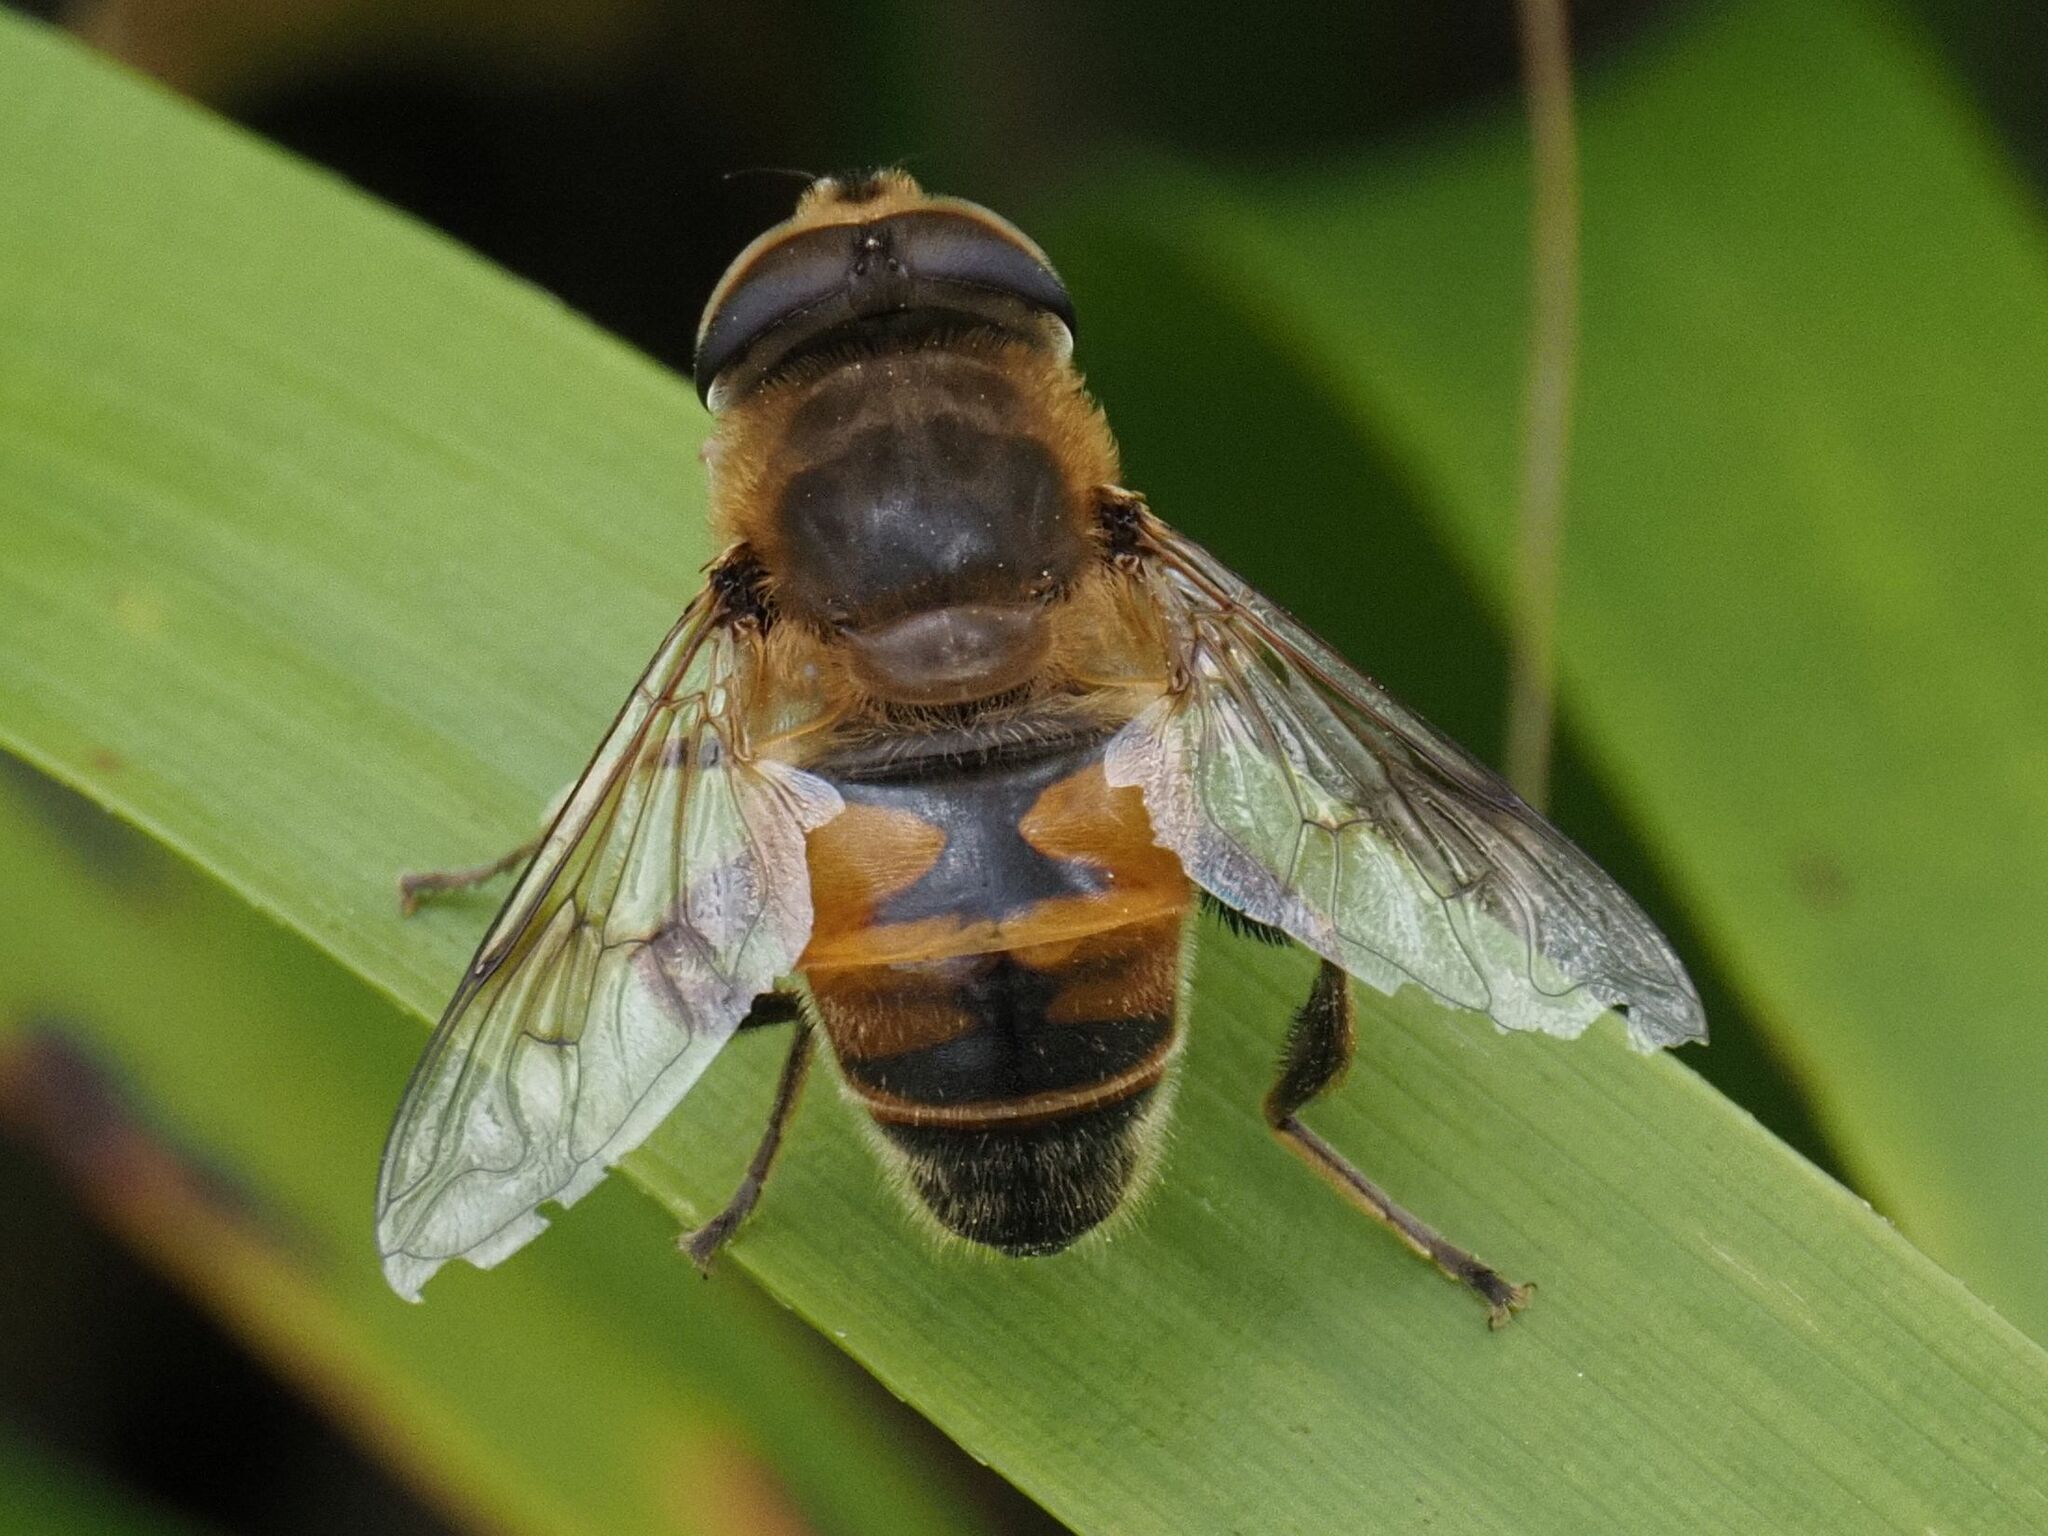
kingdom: Animalia
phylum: Arthropoda
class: Insecta
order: Diptera
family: Syrphidae
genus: Eristalis
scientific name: Eristalis tenax
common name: Drone fly
